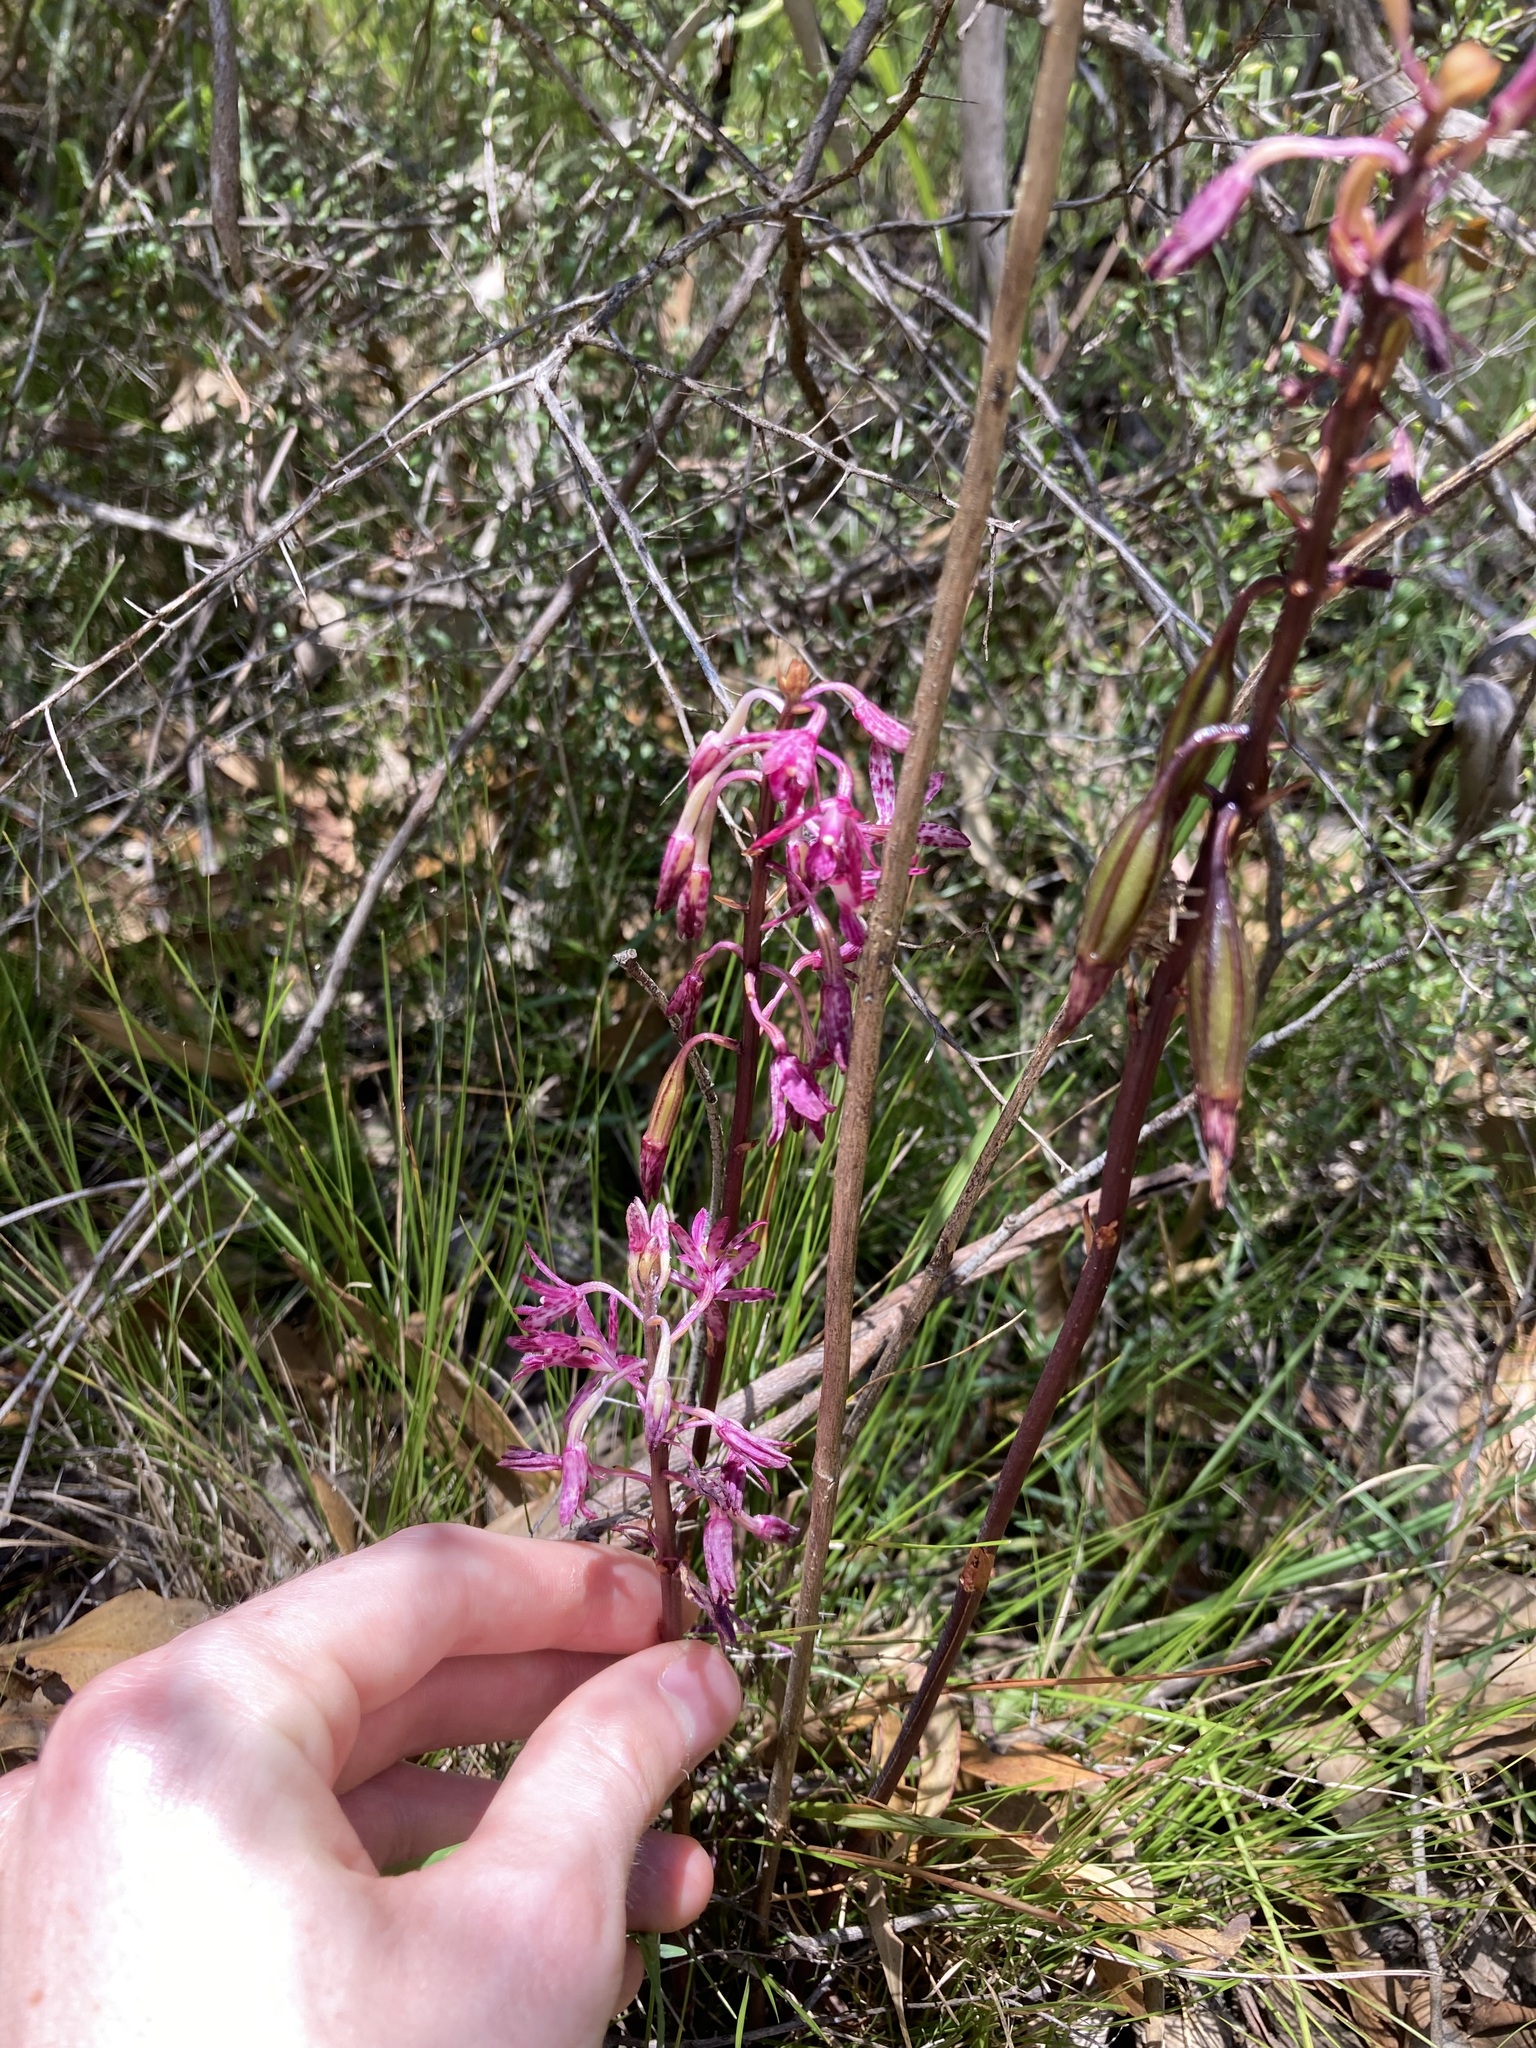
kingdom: Plantae
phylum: Tracheophyta
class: Liliopsida
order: Asparagales
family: Orchidaceae
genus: Dipodium
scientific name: Dipodium squamatum
